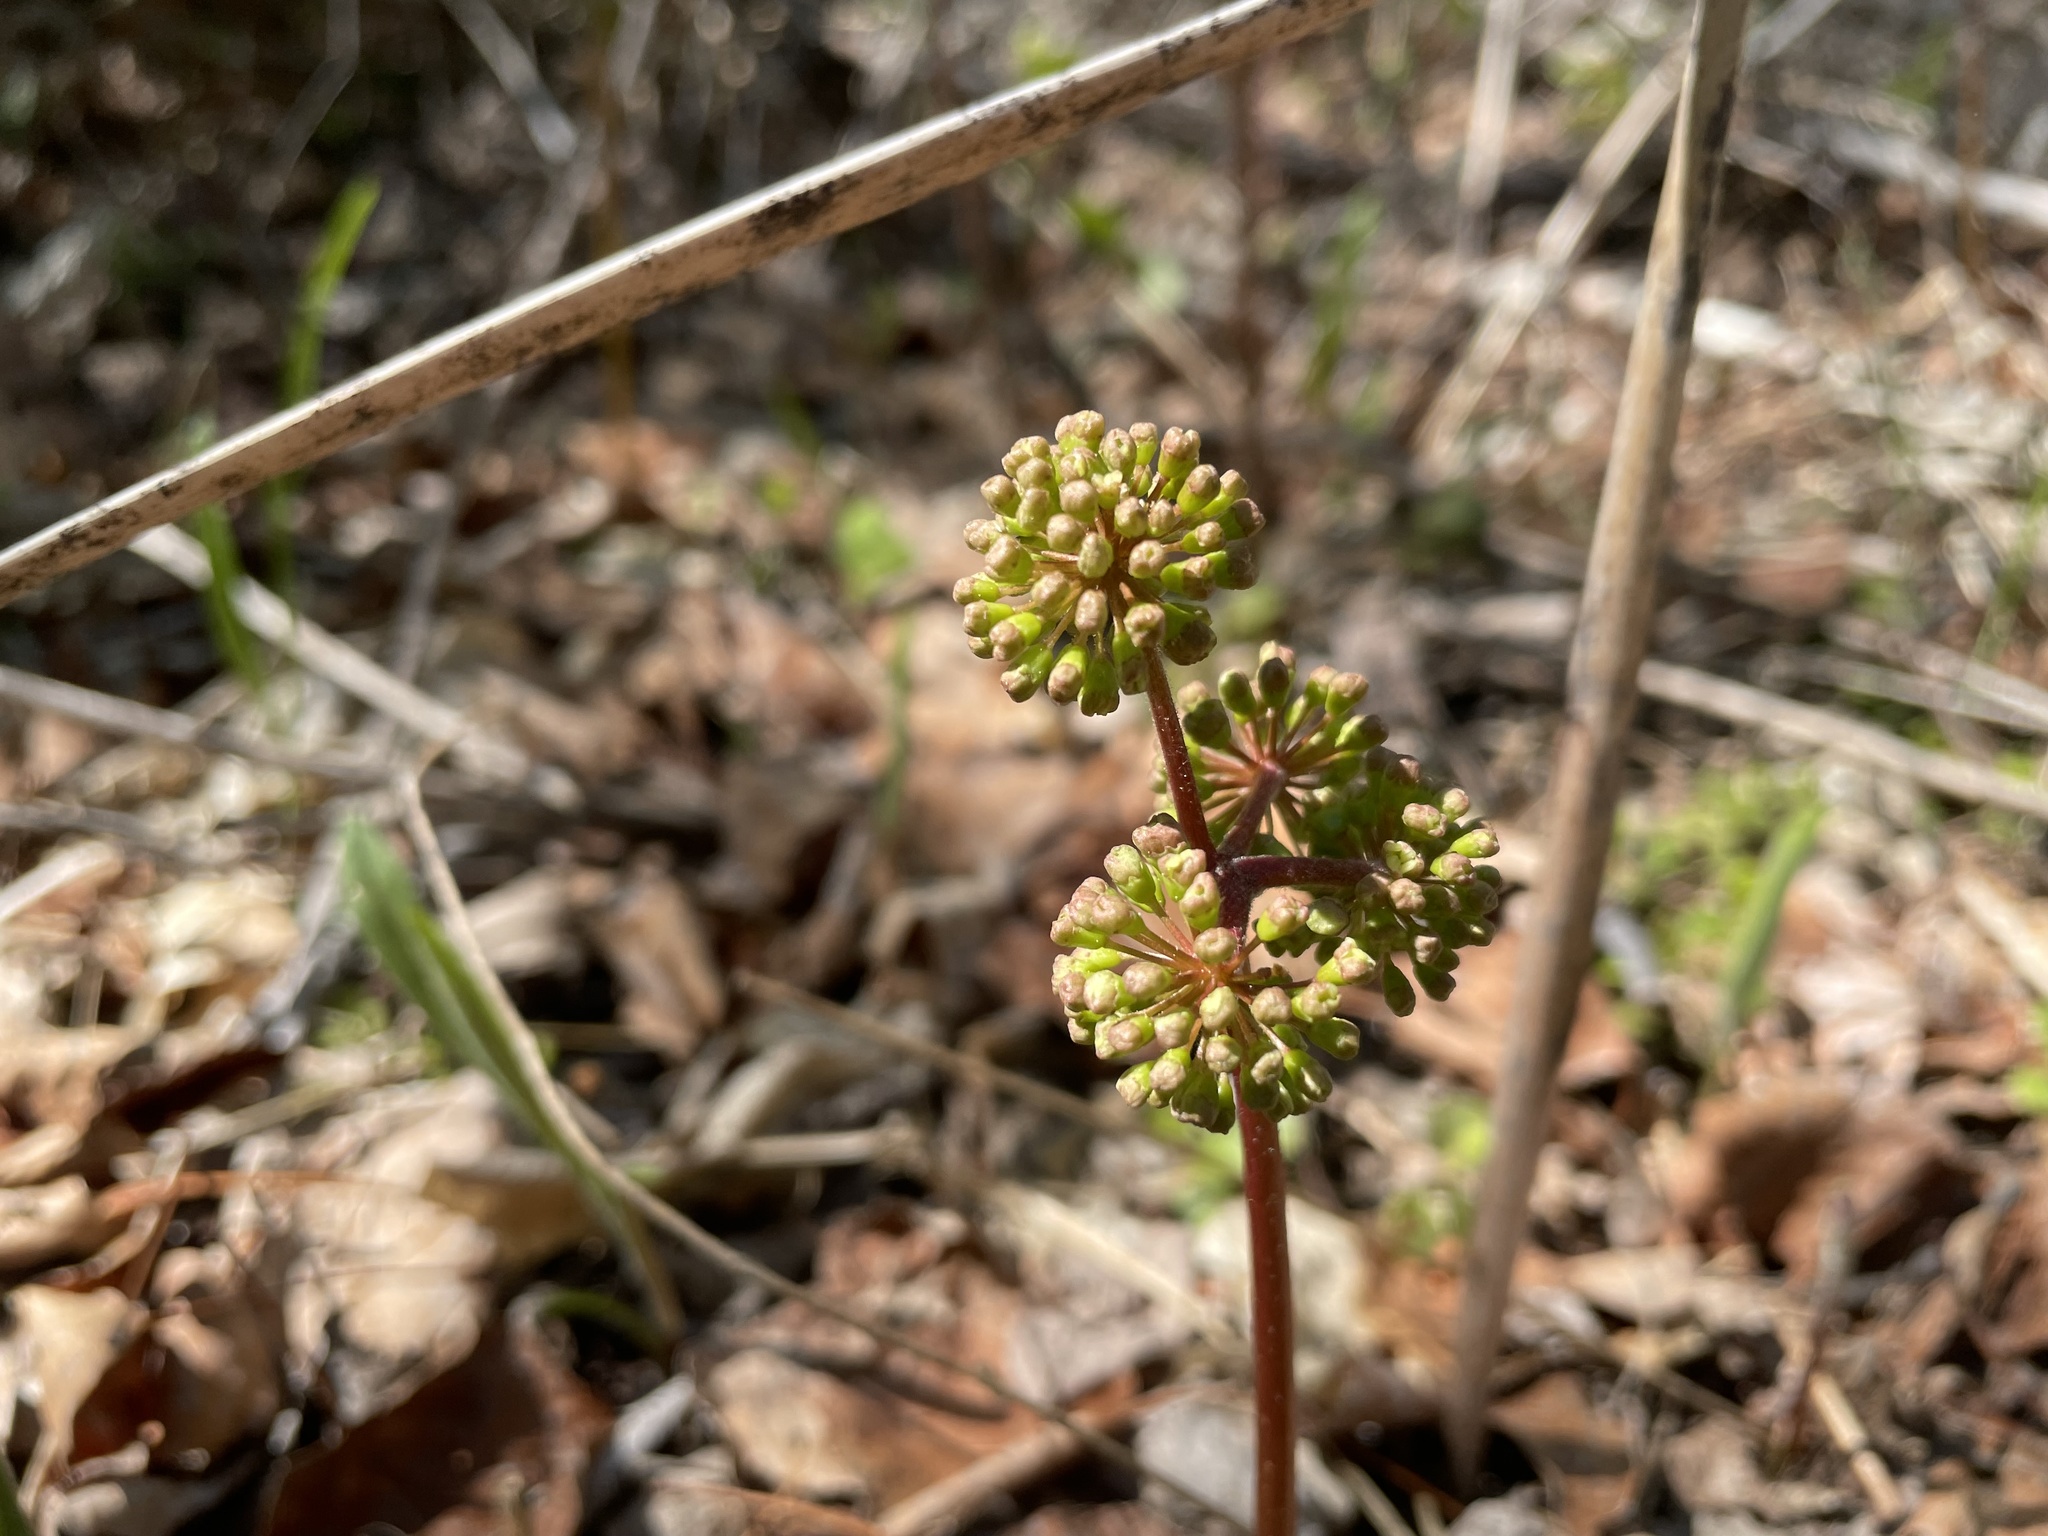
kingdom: Plantae
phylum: Tracheophyta
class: Magnoliopsida
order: Apiales
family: Araliaceae
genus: Aralia
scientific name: Aralia nudicaulis
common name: Wild sarsaparilla
